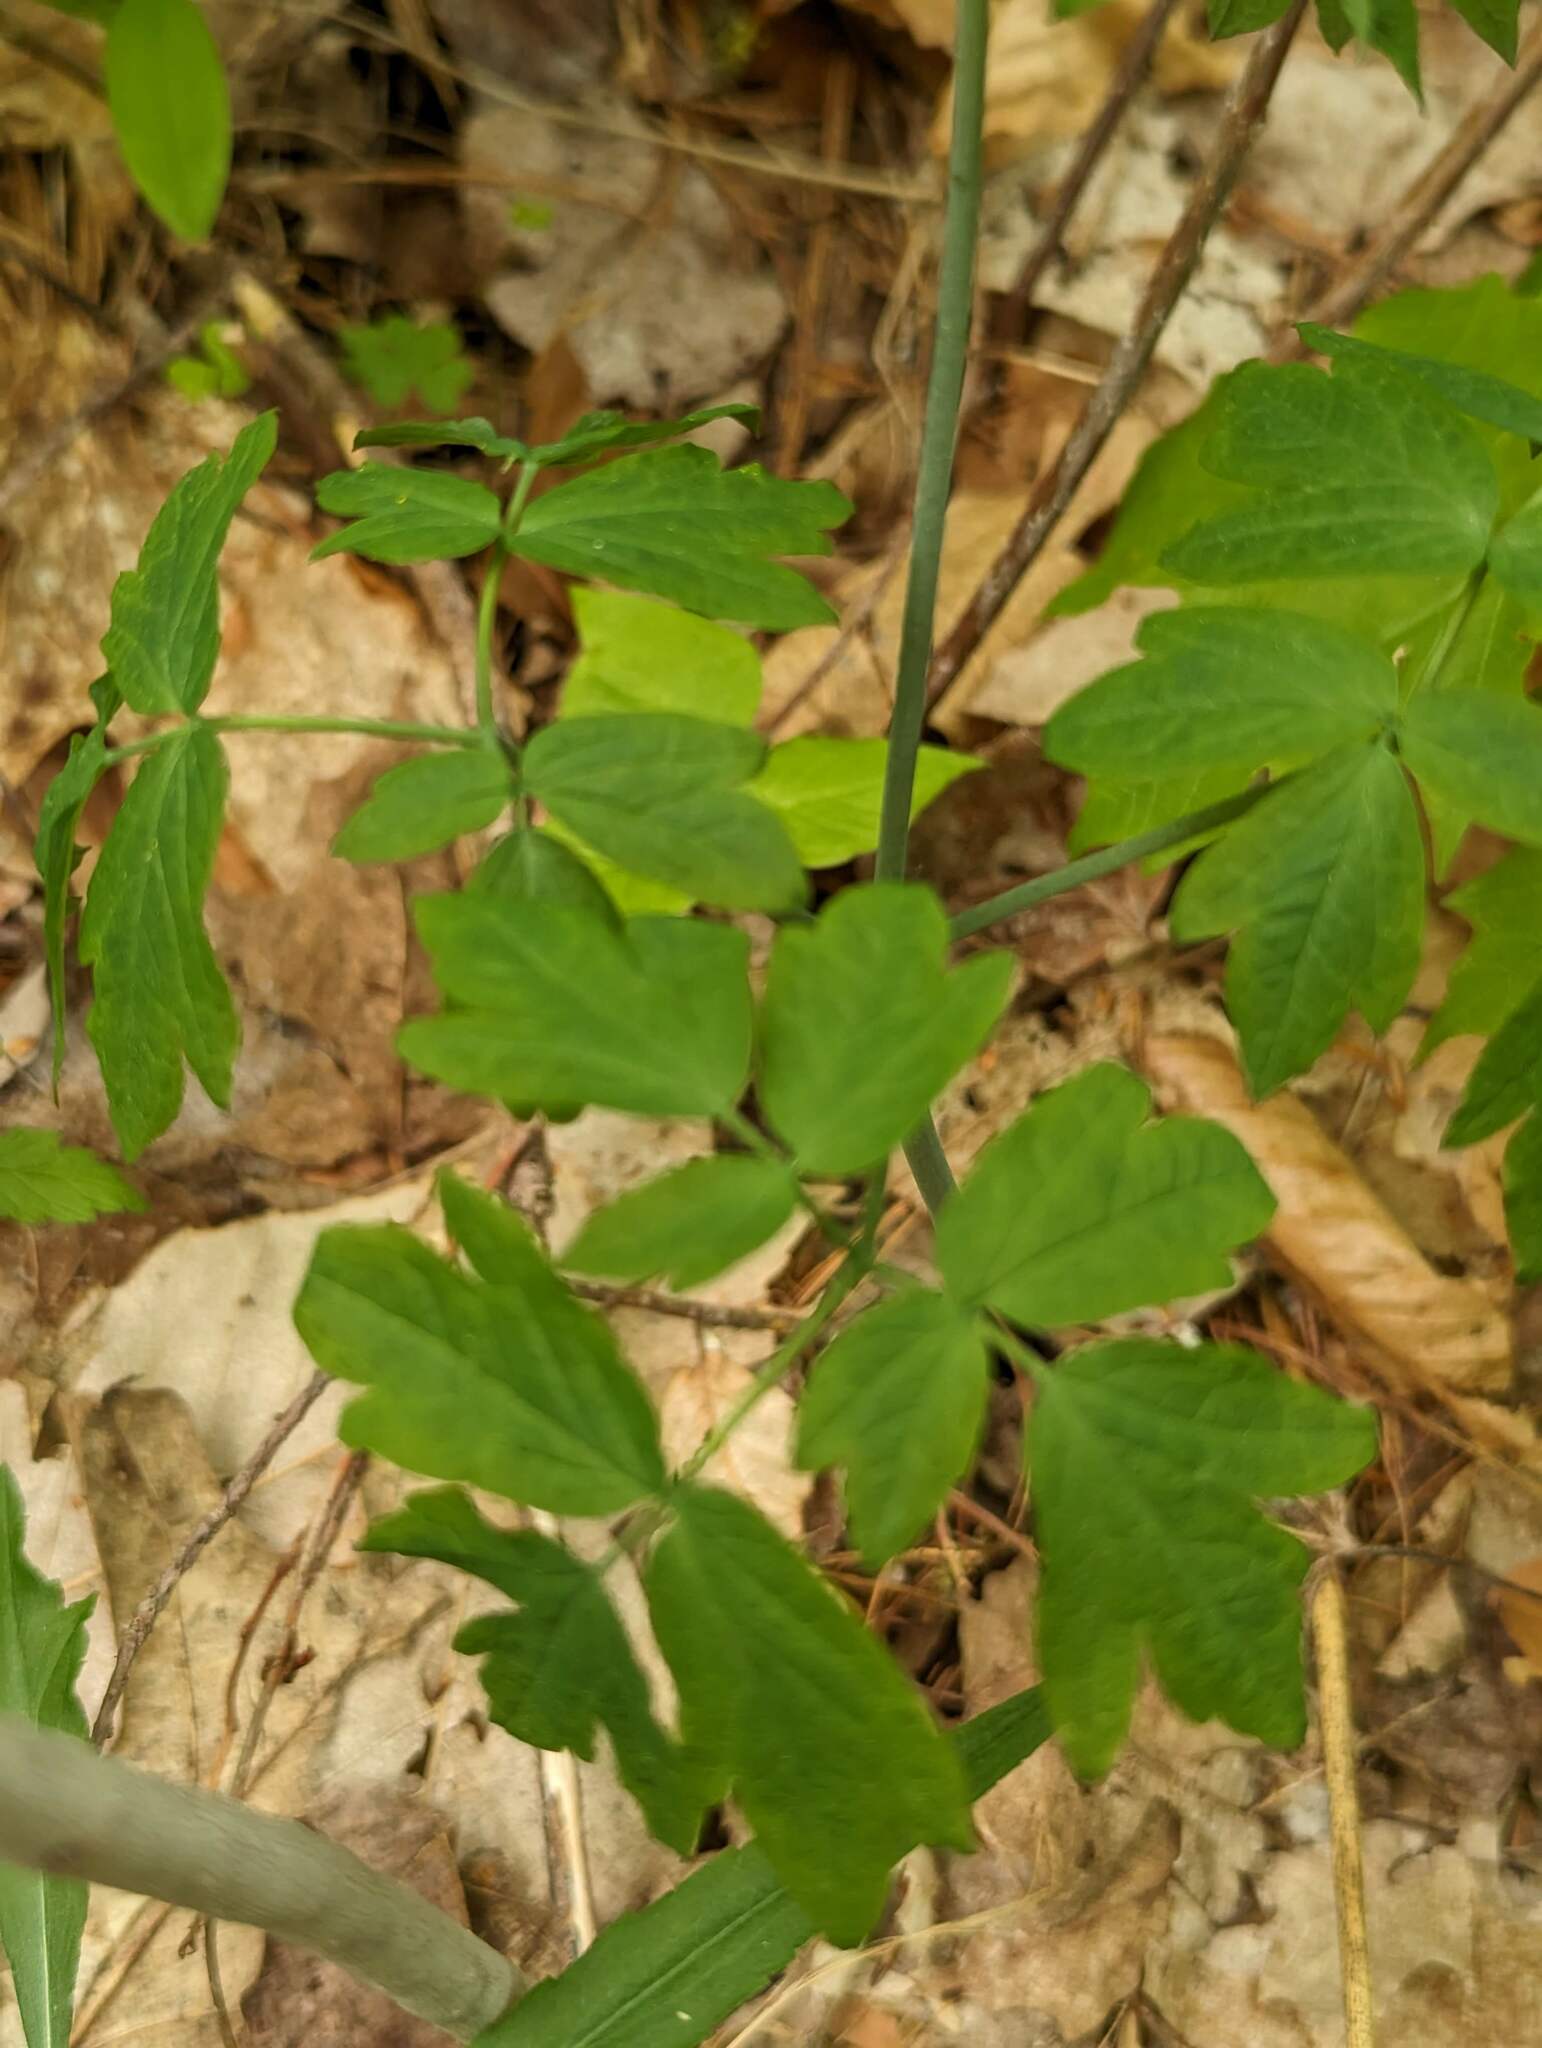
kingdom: Plantae
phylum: Tracheophyta
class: Magnoliopsida
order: Ranunculales
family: Berberidaceae
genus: Caulophyllum
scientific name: Caulophyllum thalictroides
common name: Blue cohosh
